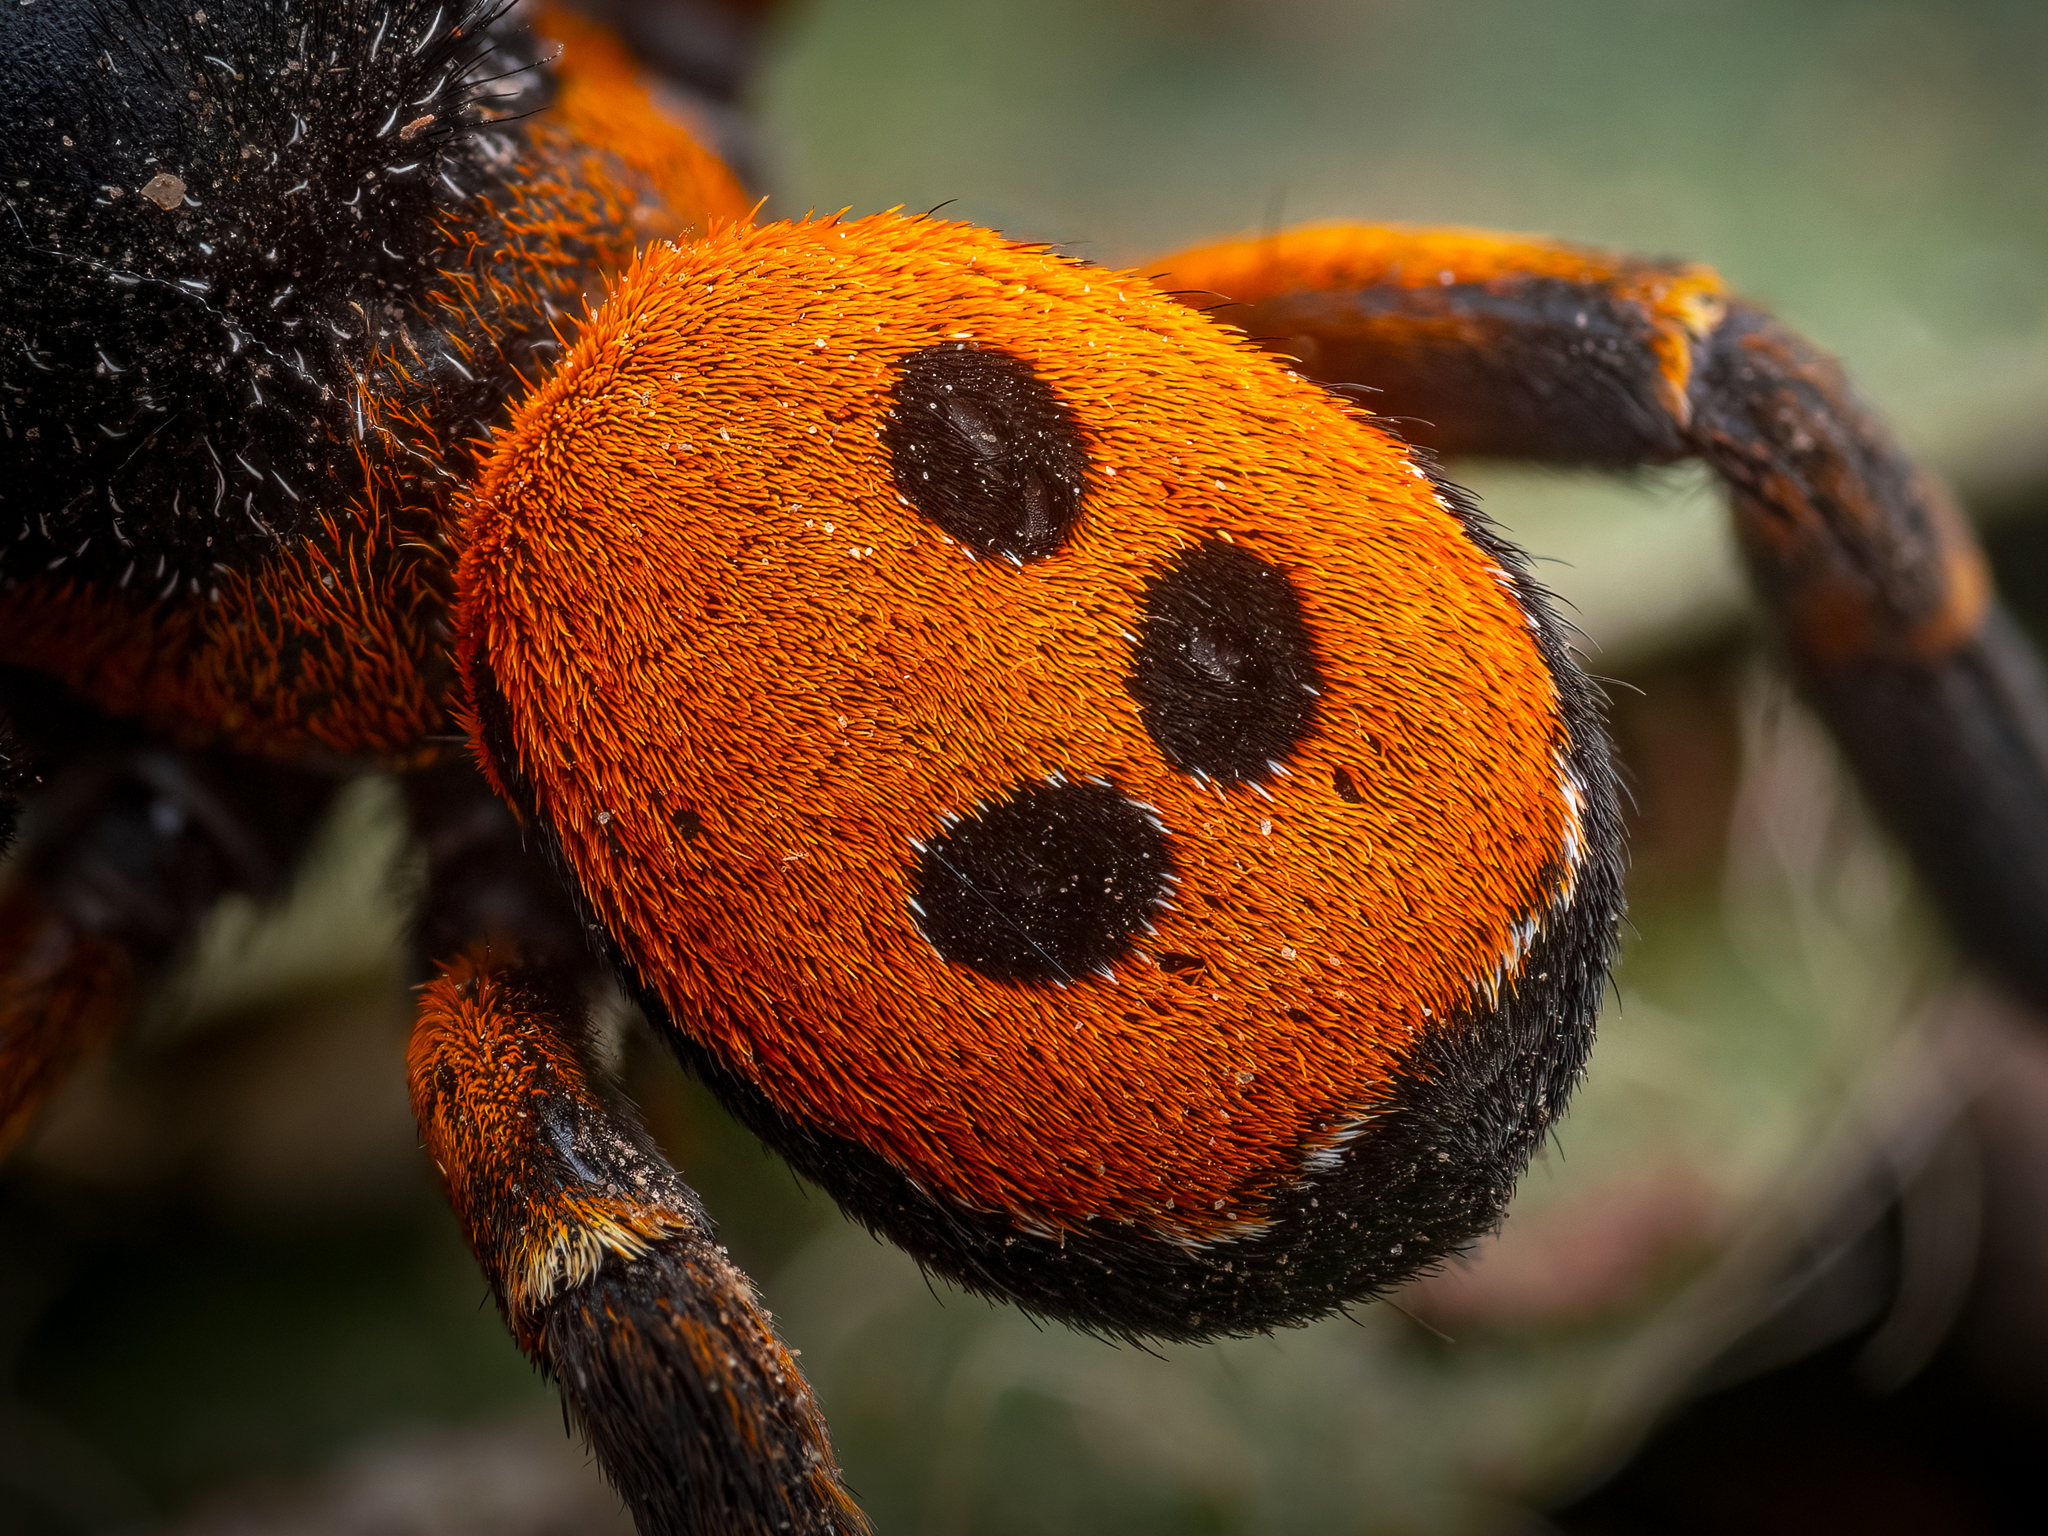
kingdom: Animalia
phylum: Arthropoda
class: Arachnida
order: Araneae
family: Eresidae
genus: Eresus
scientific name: Eresus kollari
